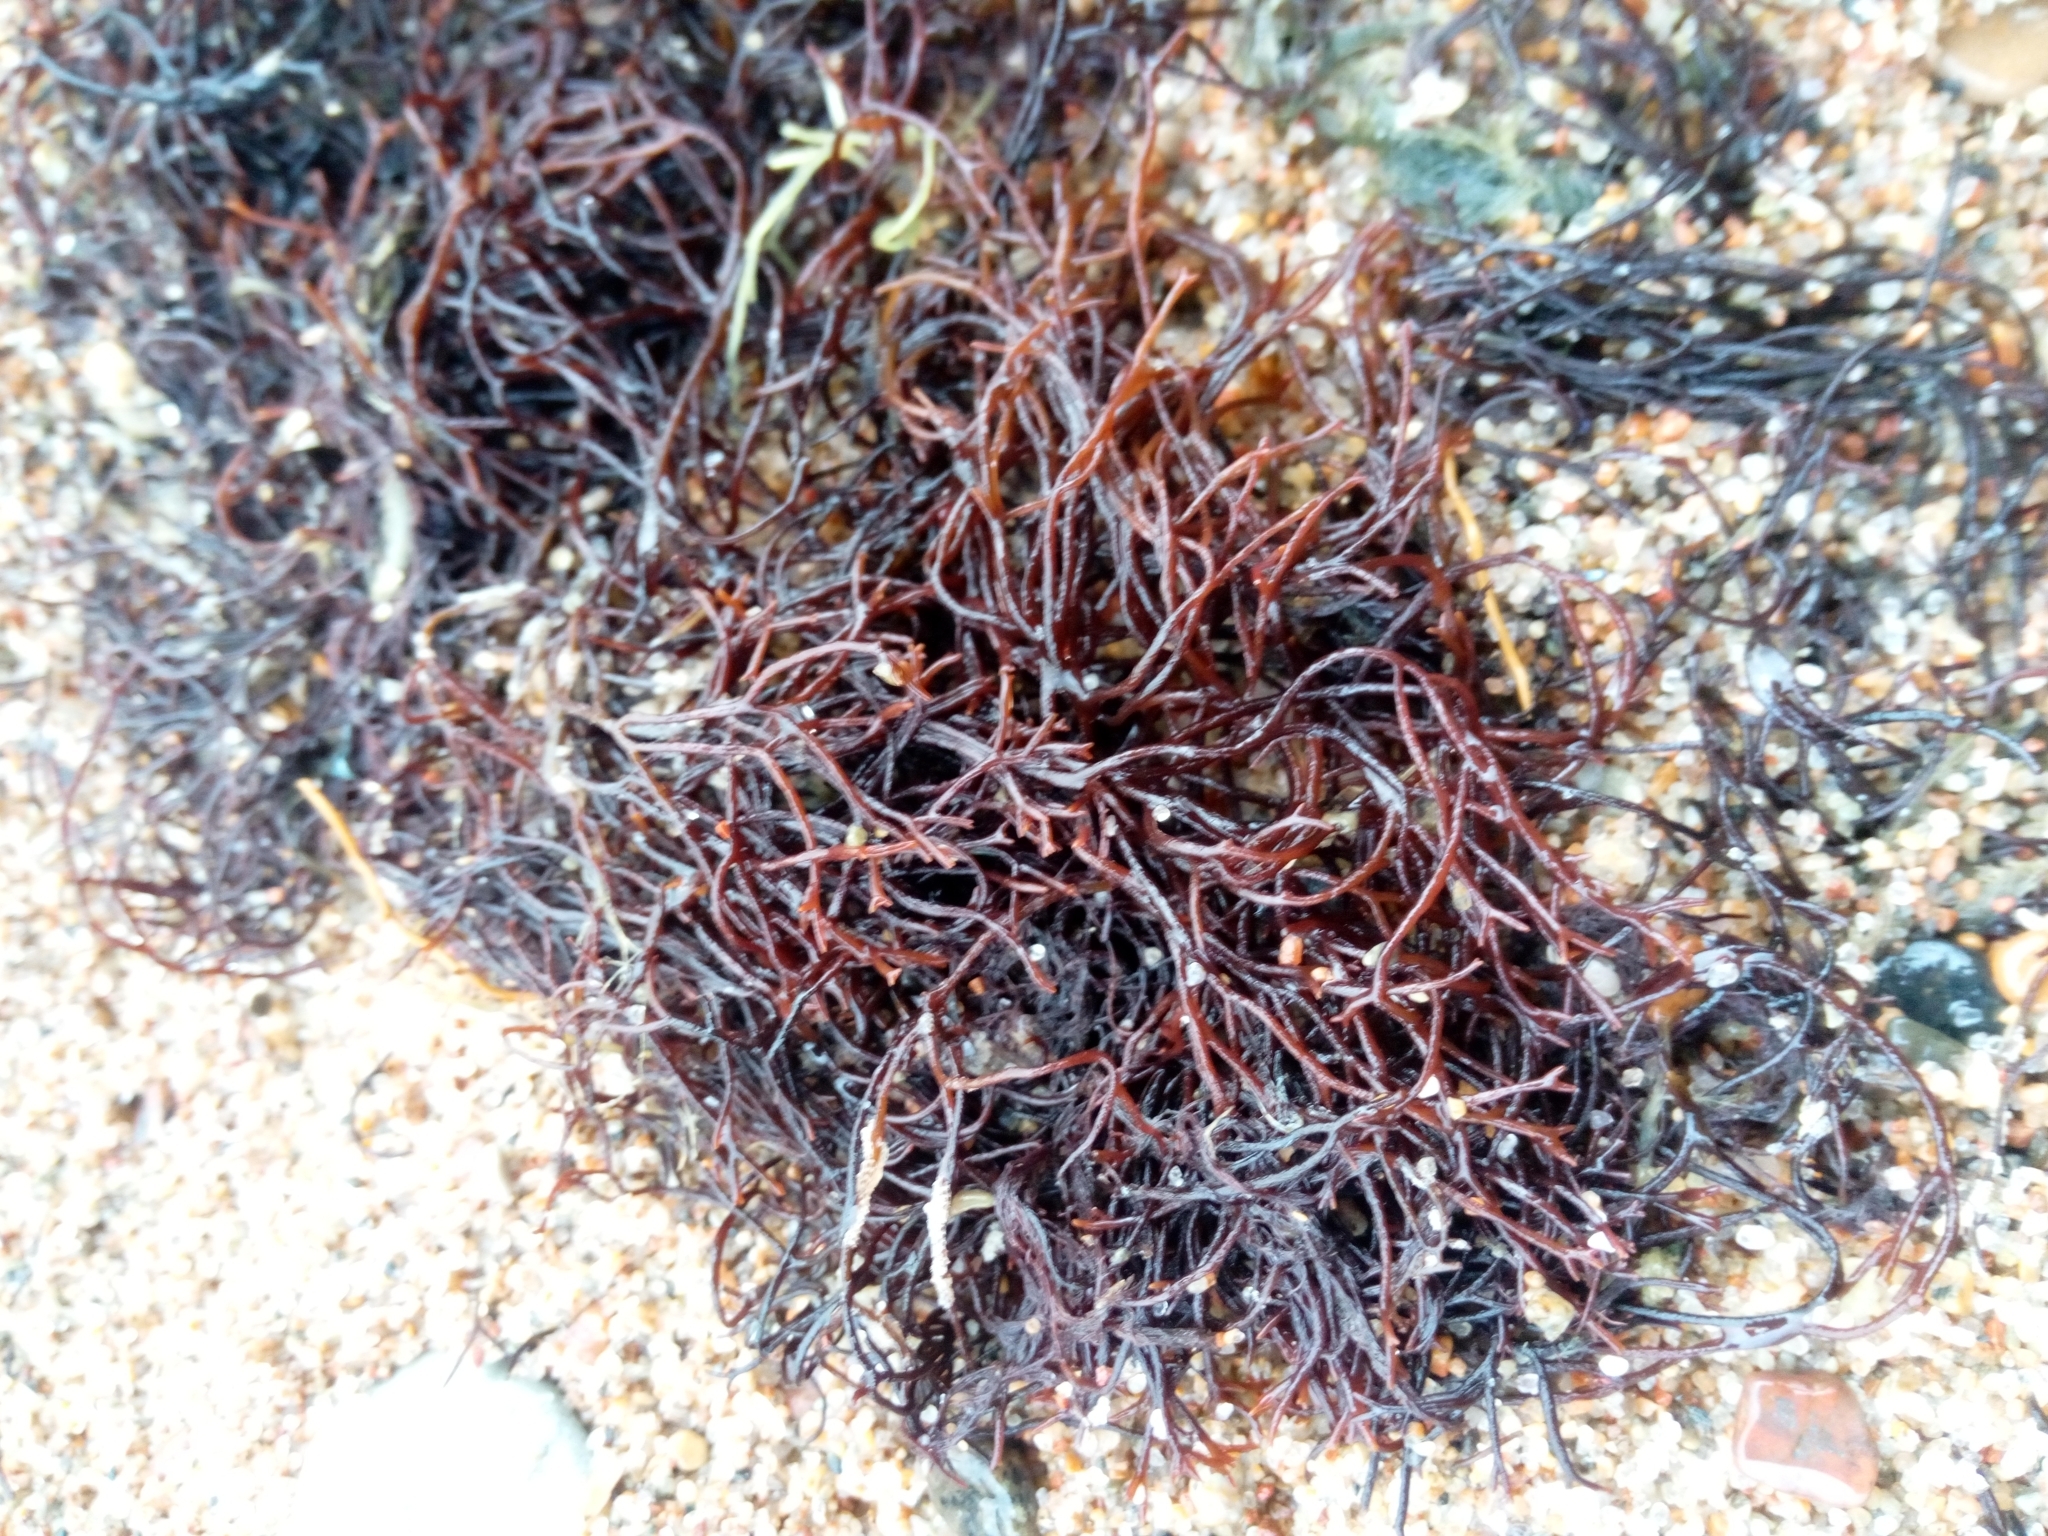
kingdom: Plantae
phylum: Rhodophyta
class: Florideophyceae
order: Gigartinales
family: Furcellariaceae
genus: Furcellaria
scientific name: Furcellaria lumbricalis
